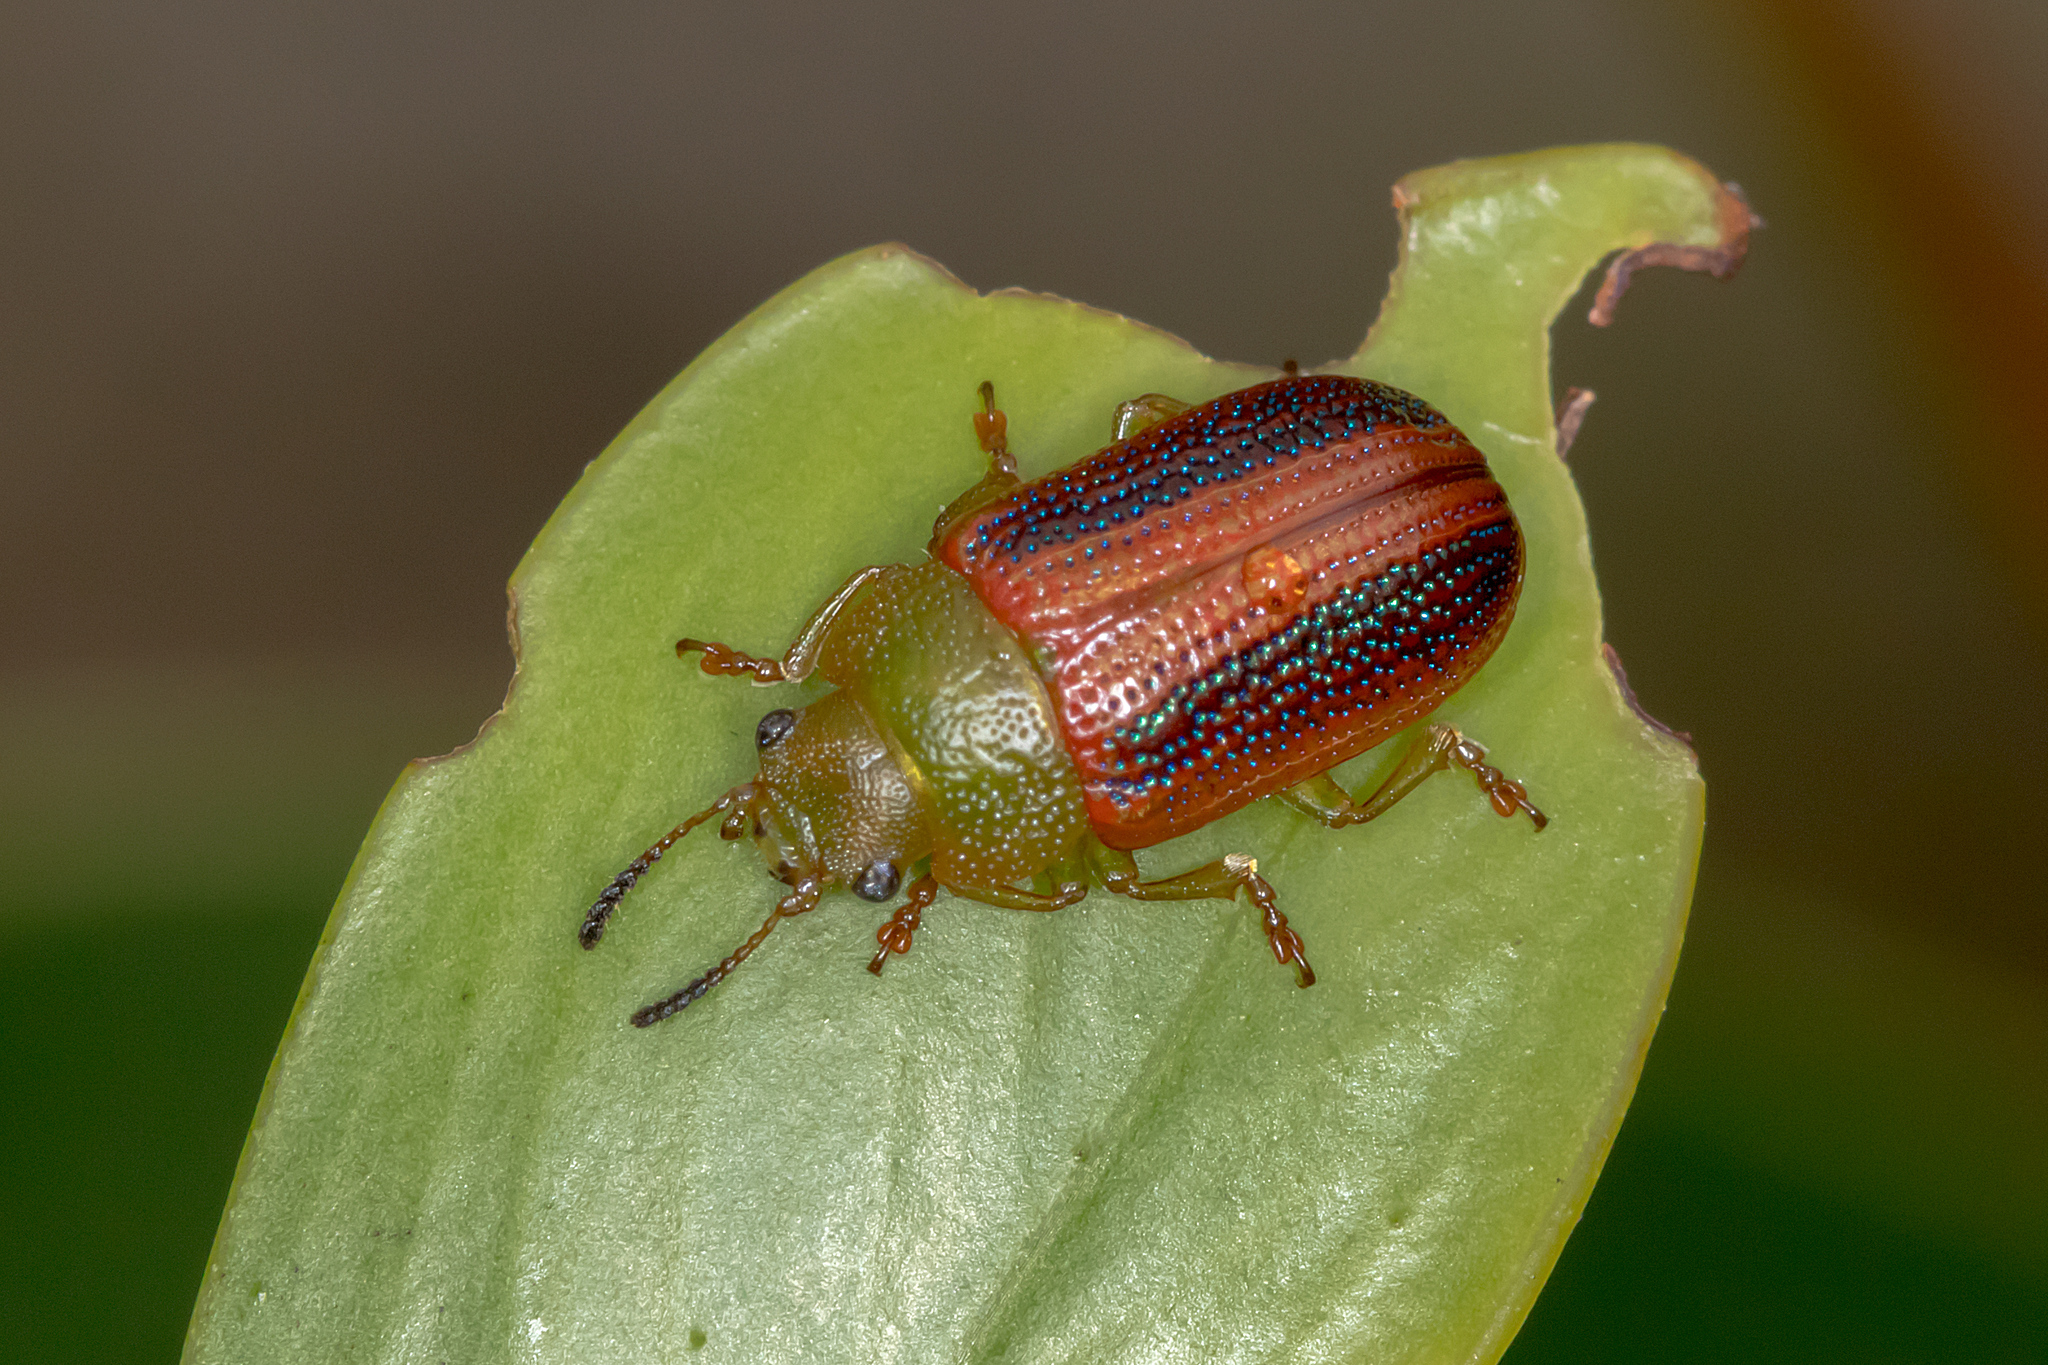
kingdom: Animalia
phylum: Arthropoda
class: Insecta
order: Coleoptera
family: Chrysomelidae
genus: Calomela
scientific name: Calomela
